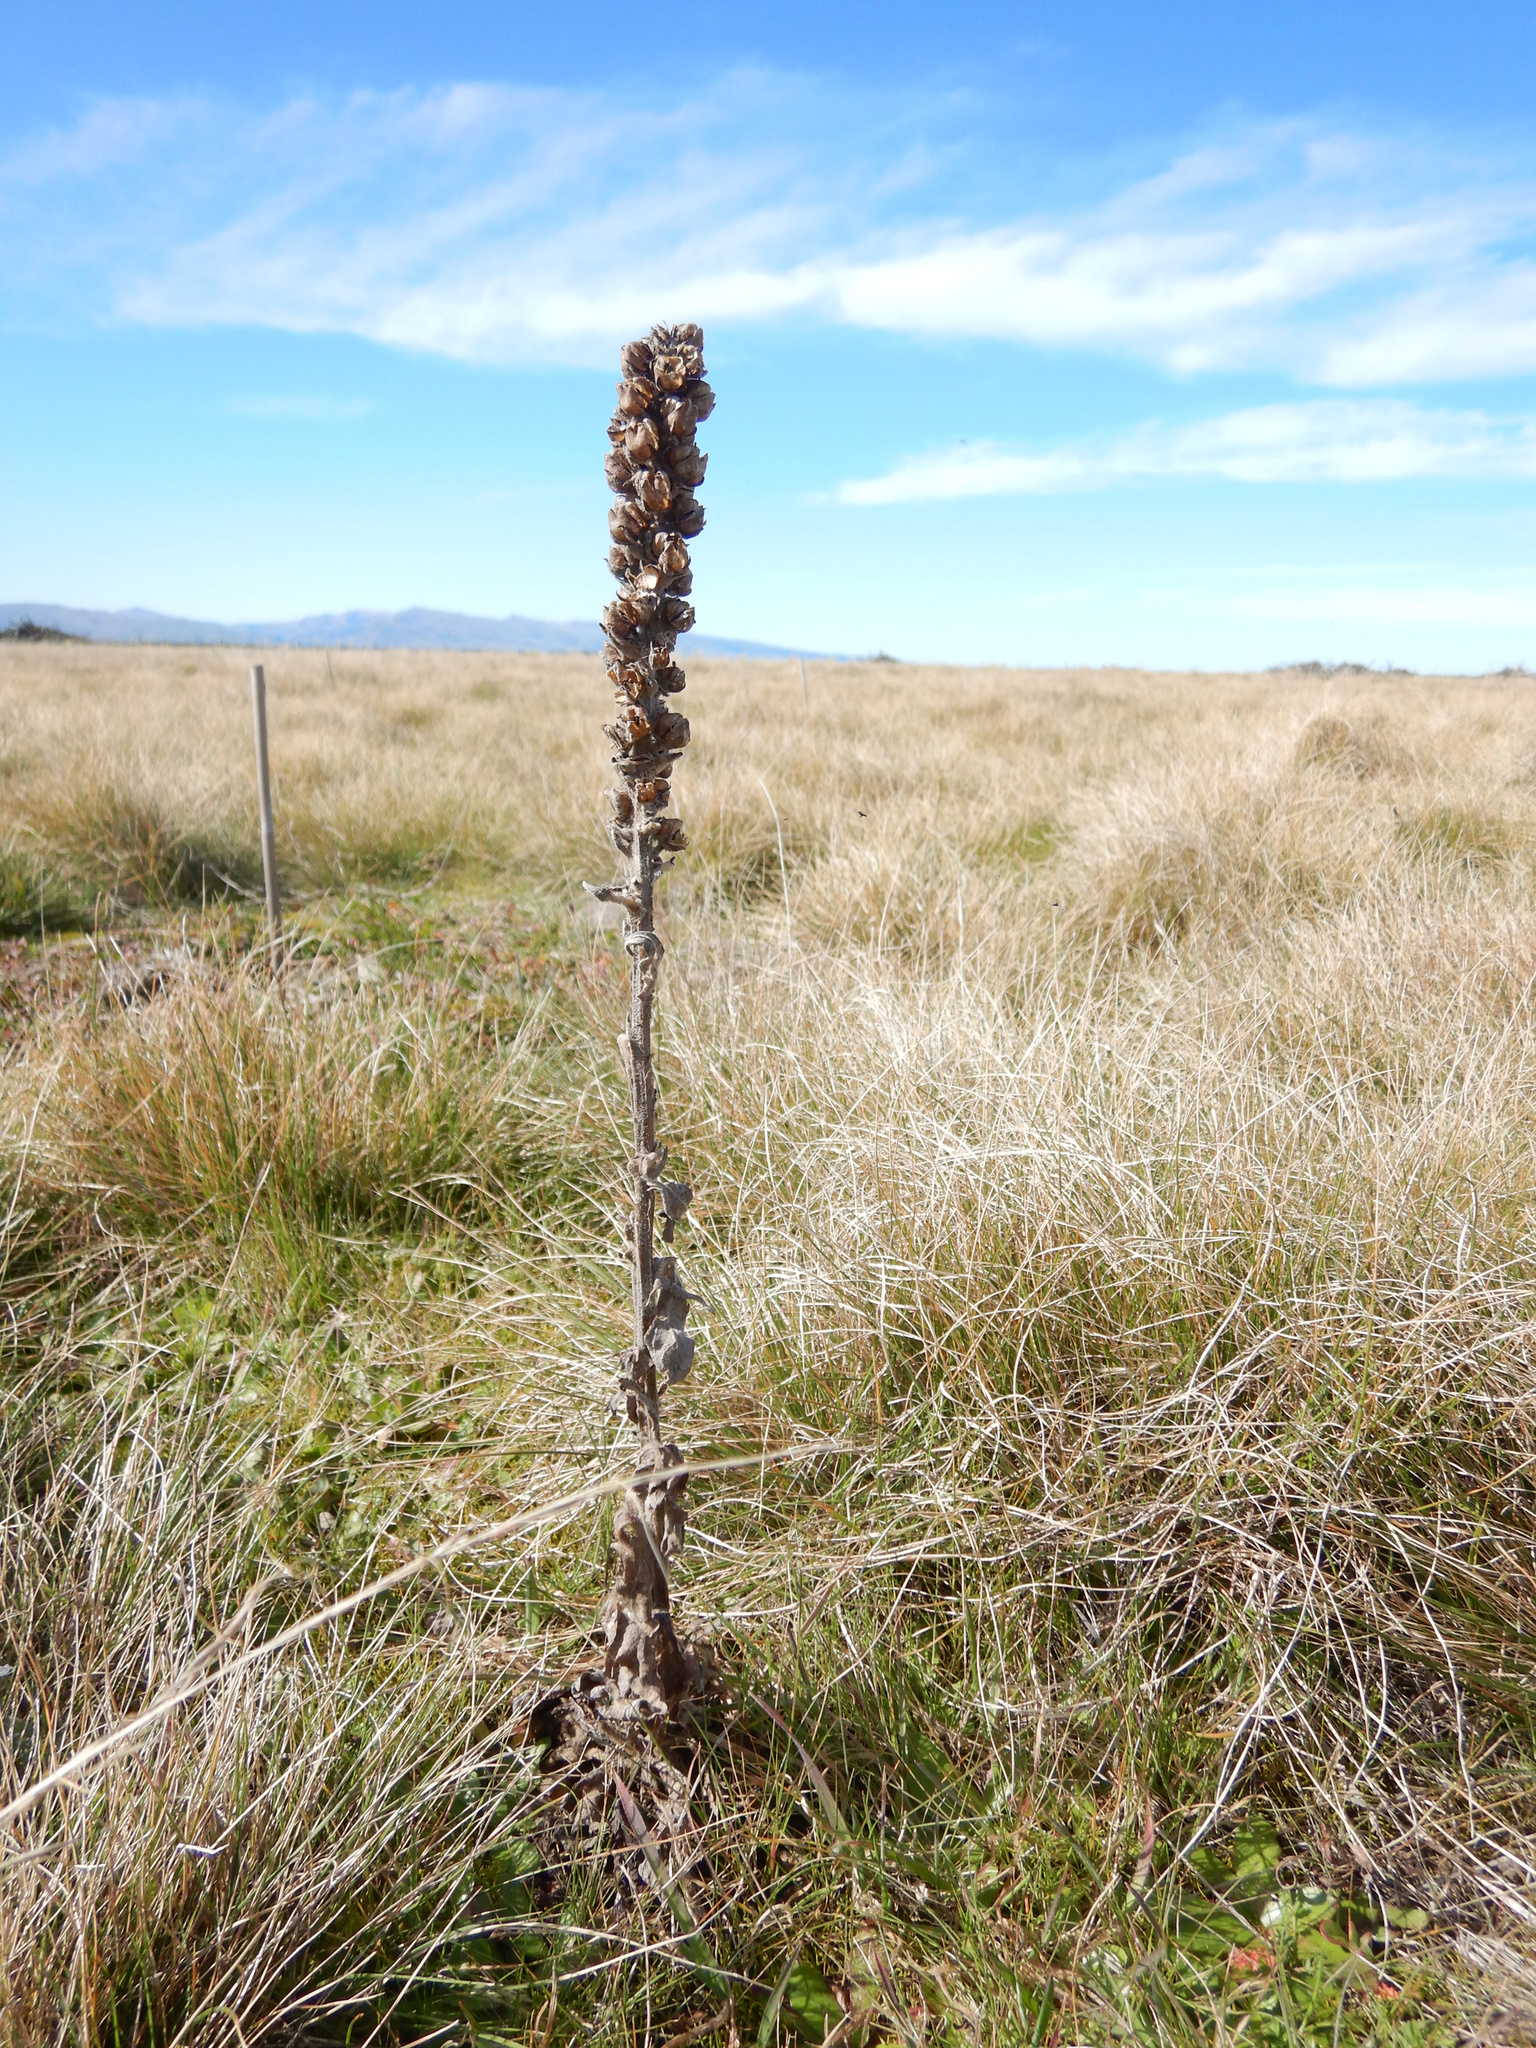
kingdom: Plantae
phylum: Tracheophyta
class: Magnoliopsida
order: Lamiales
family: Scrophulariaceae
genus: Verbascum
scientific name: Verbascum thapsus
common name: Common mullein
